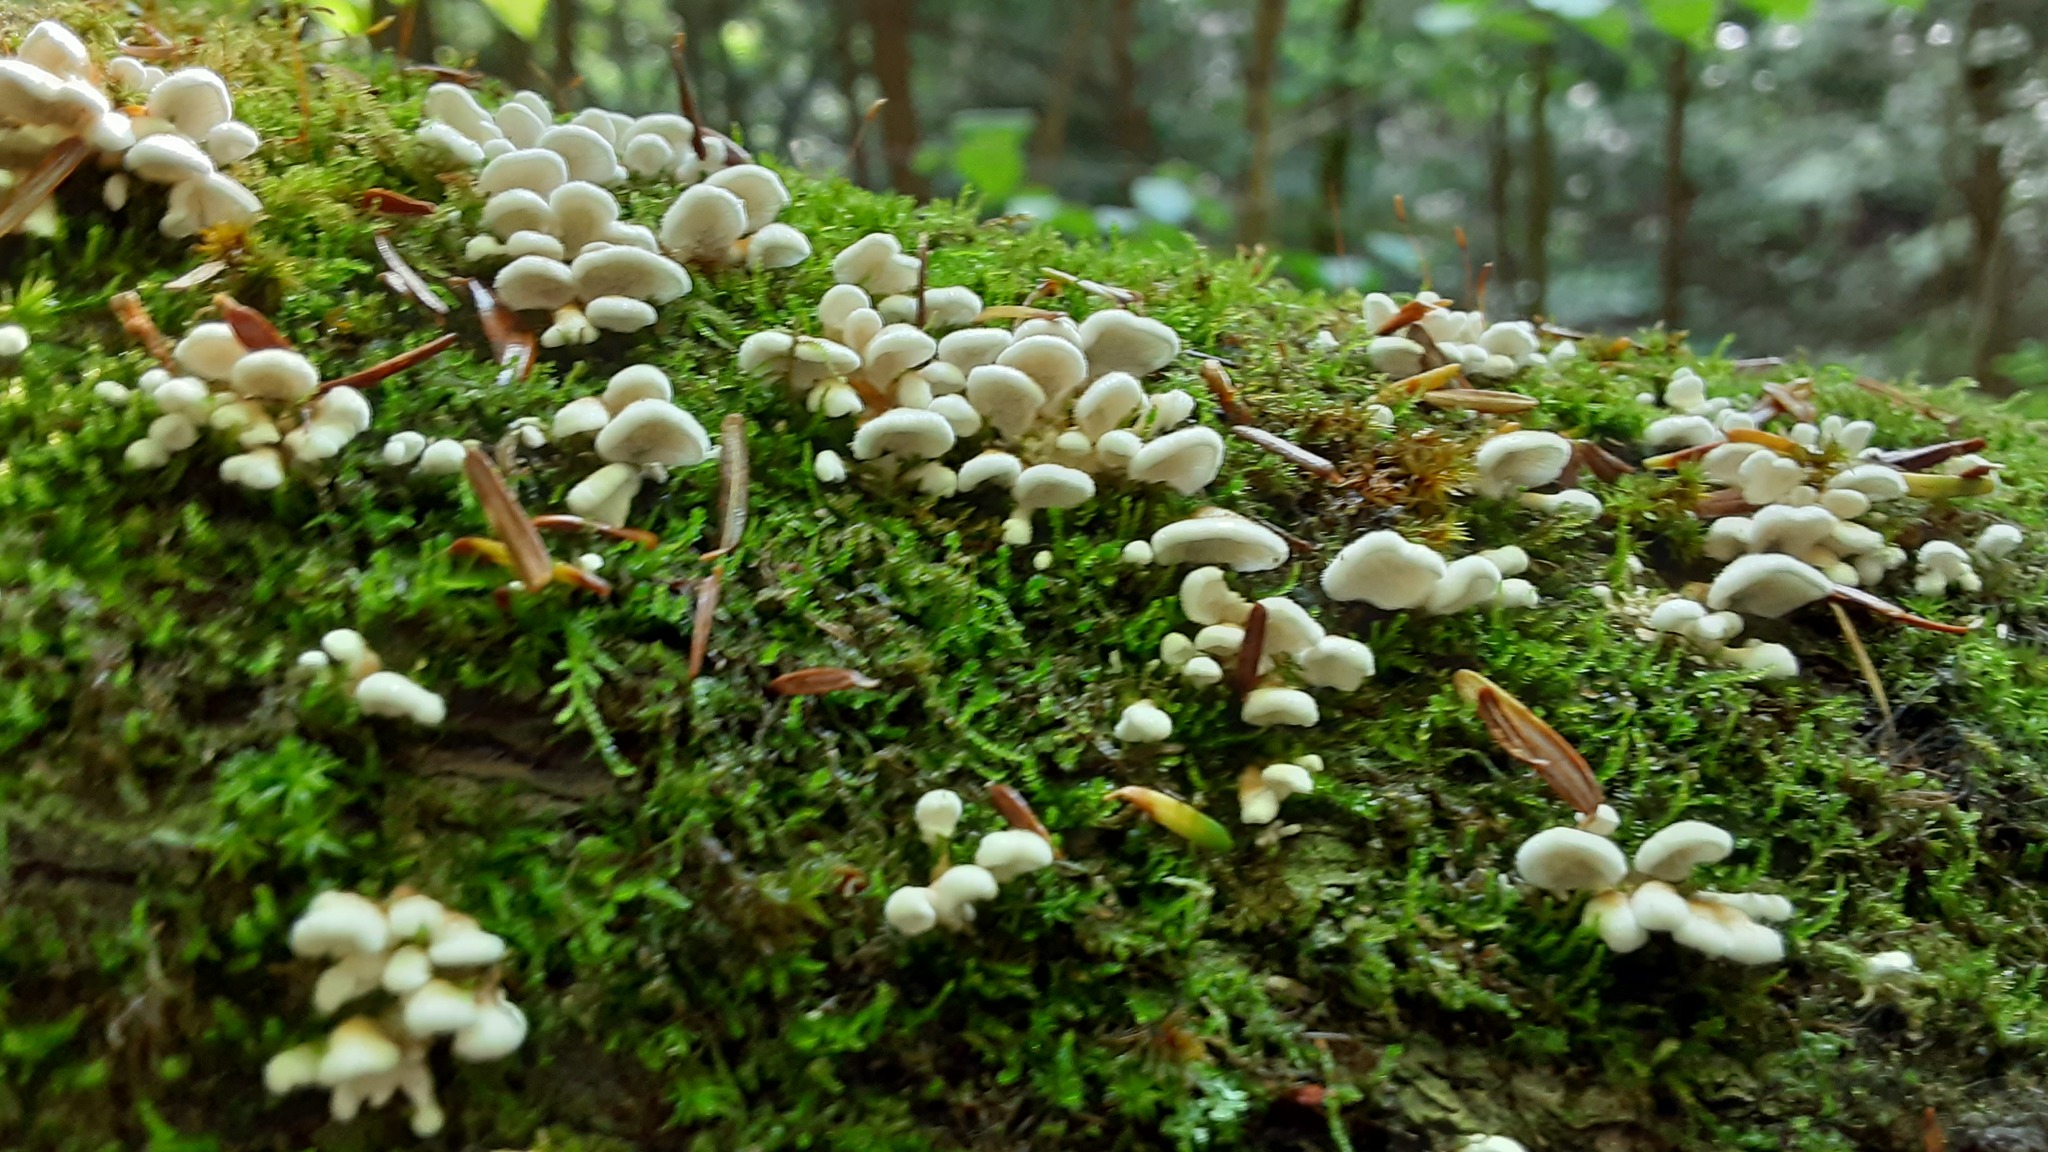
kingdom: Fungi
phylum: Basidiomycota
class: Agaricomycetes
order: Amylocorticiales
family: Amylocorticiaceae
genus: Plicaturopsis
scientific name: Plicaturopsis crispa
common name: Crimped gill
